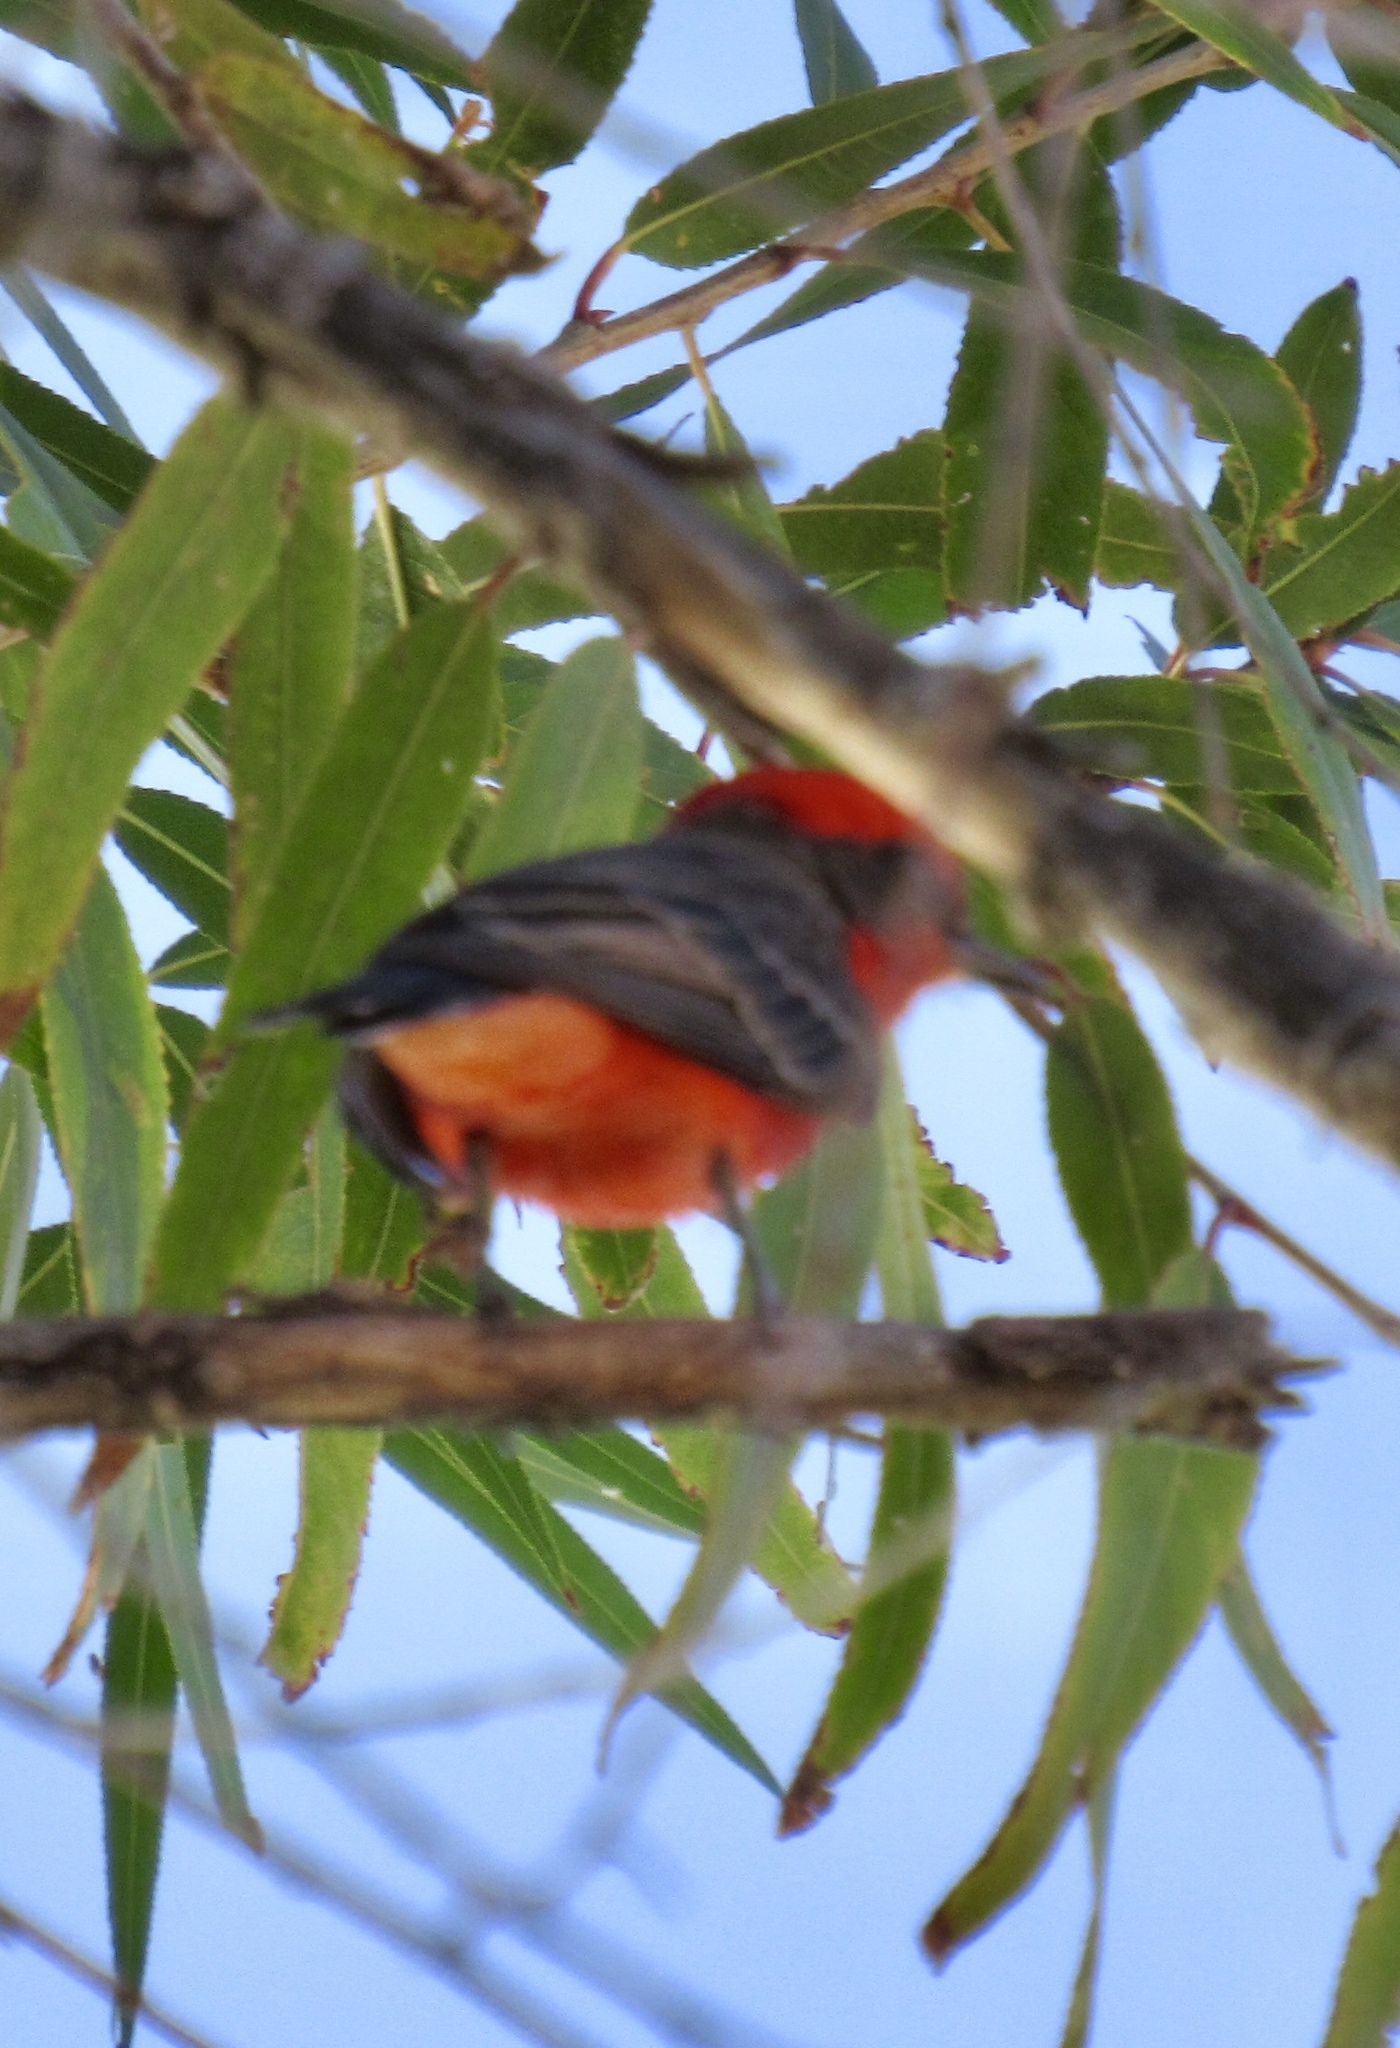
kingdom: Animalia
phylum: Chordata
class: Aves
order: Passeriformes
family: Tyrannidae
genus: Pyrocephalus
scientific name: Pyrocephalus rubinus
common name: Vermilion flycatcher
